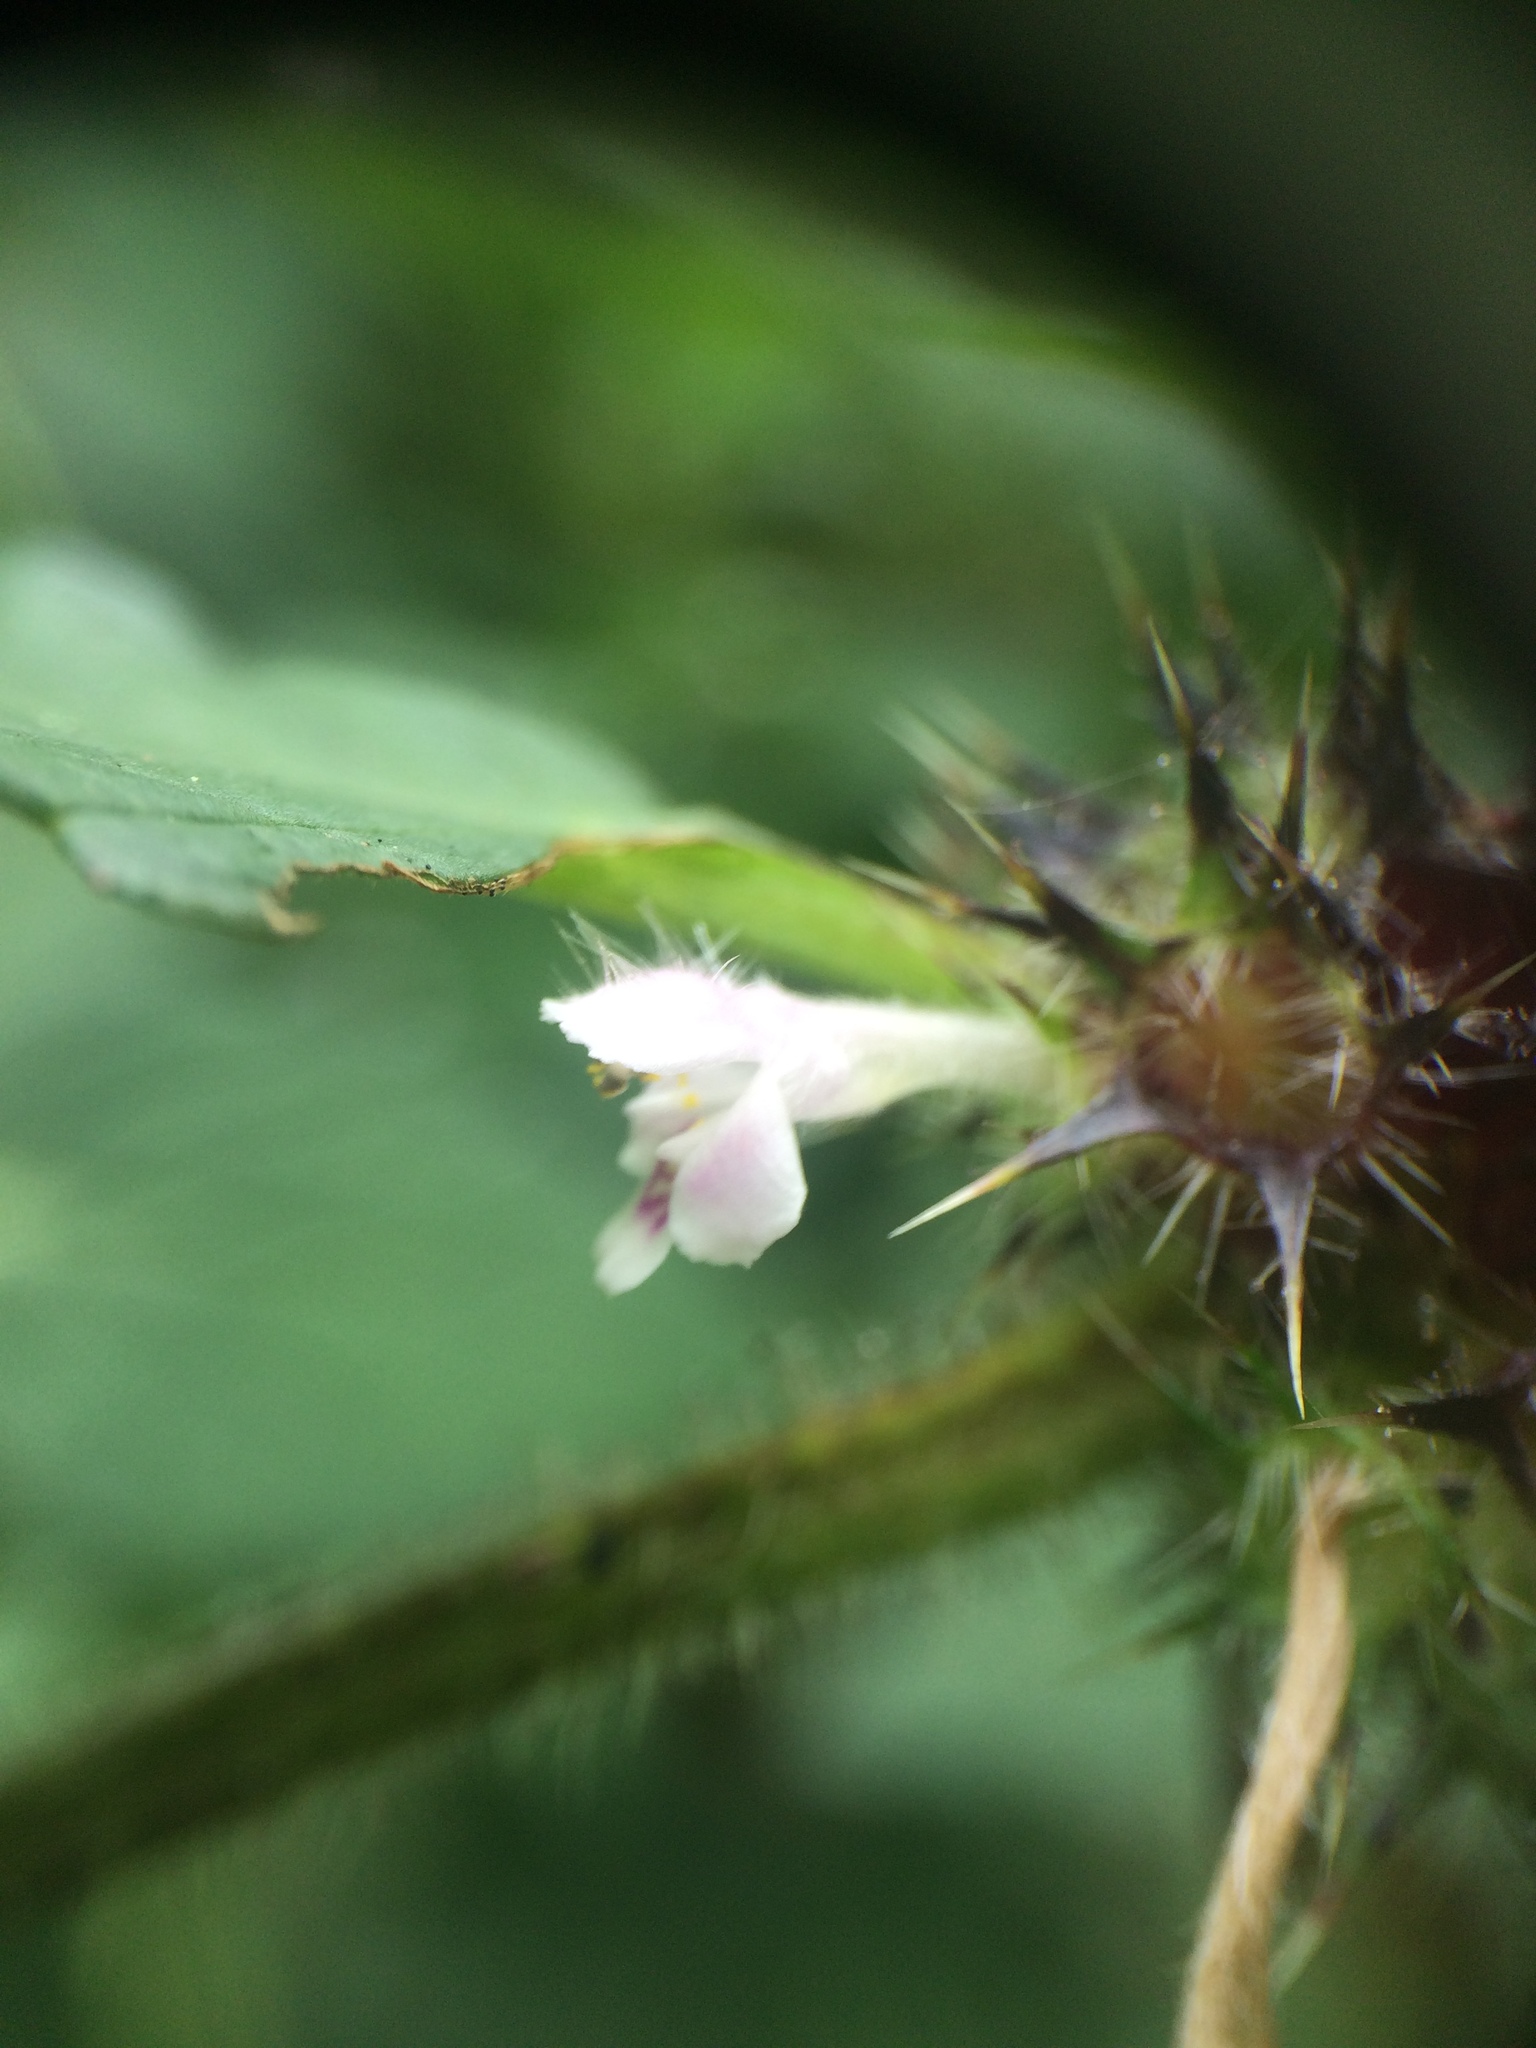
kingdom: Plantae
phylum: Tracheophyta
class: Magnoliopsida
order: Lamiales
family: Lamiaceae
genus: Galeopsis
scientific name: Galeopsis tetrahit
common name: Common hemp-nettle
